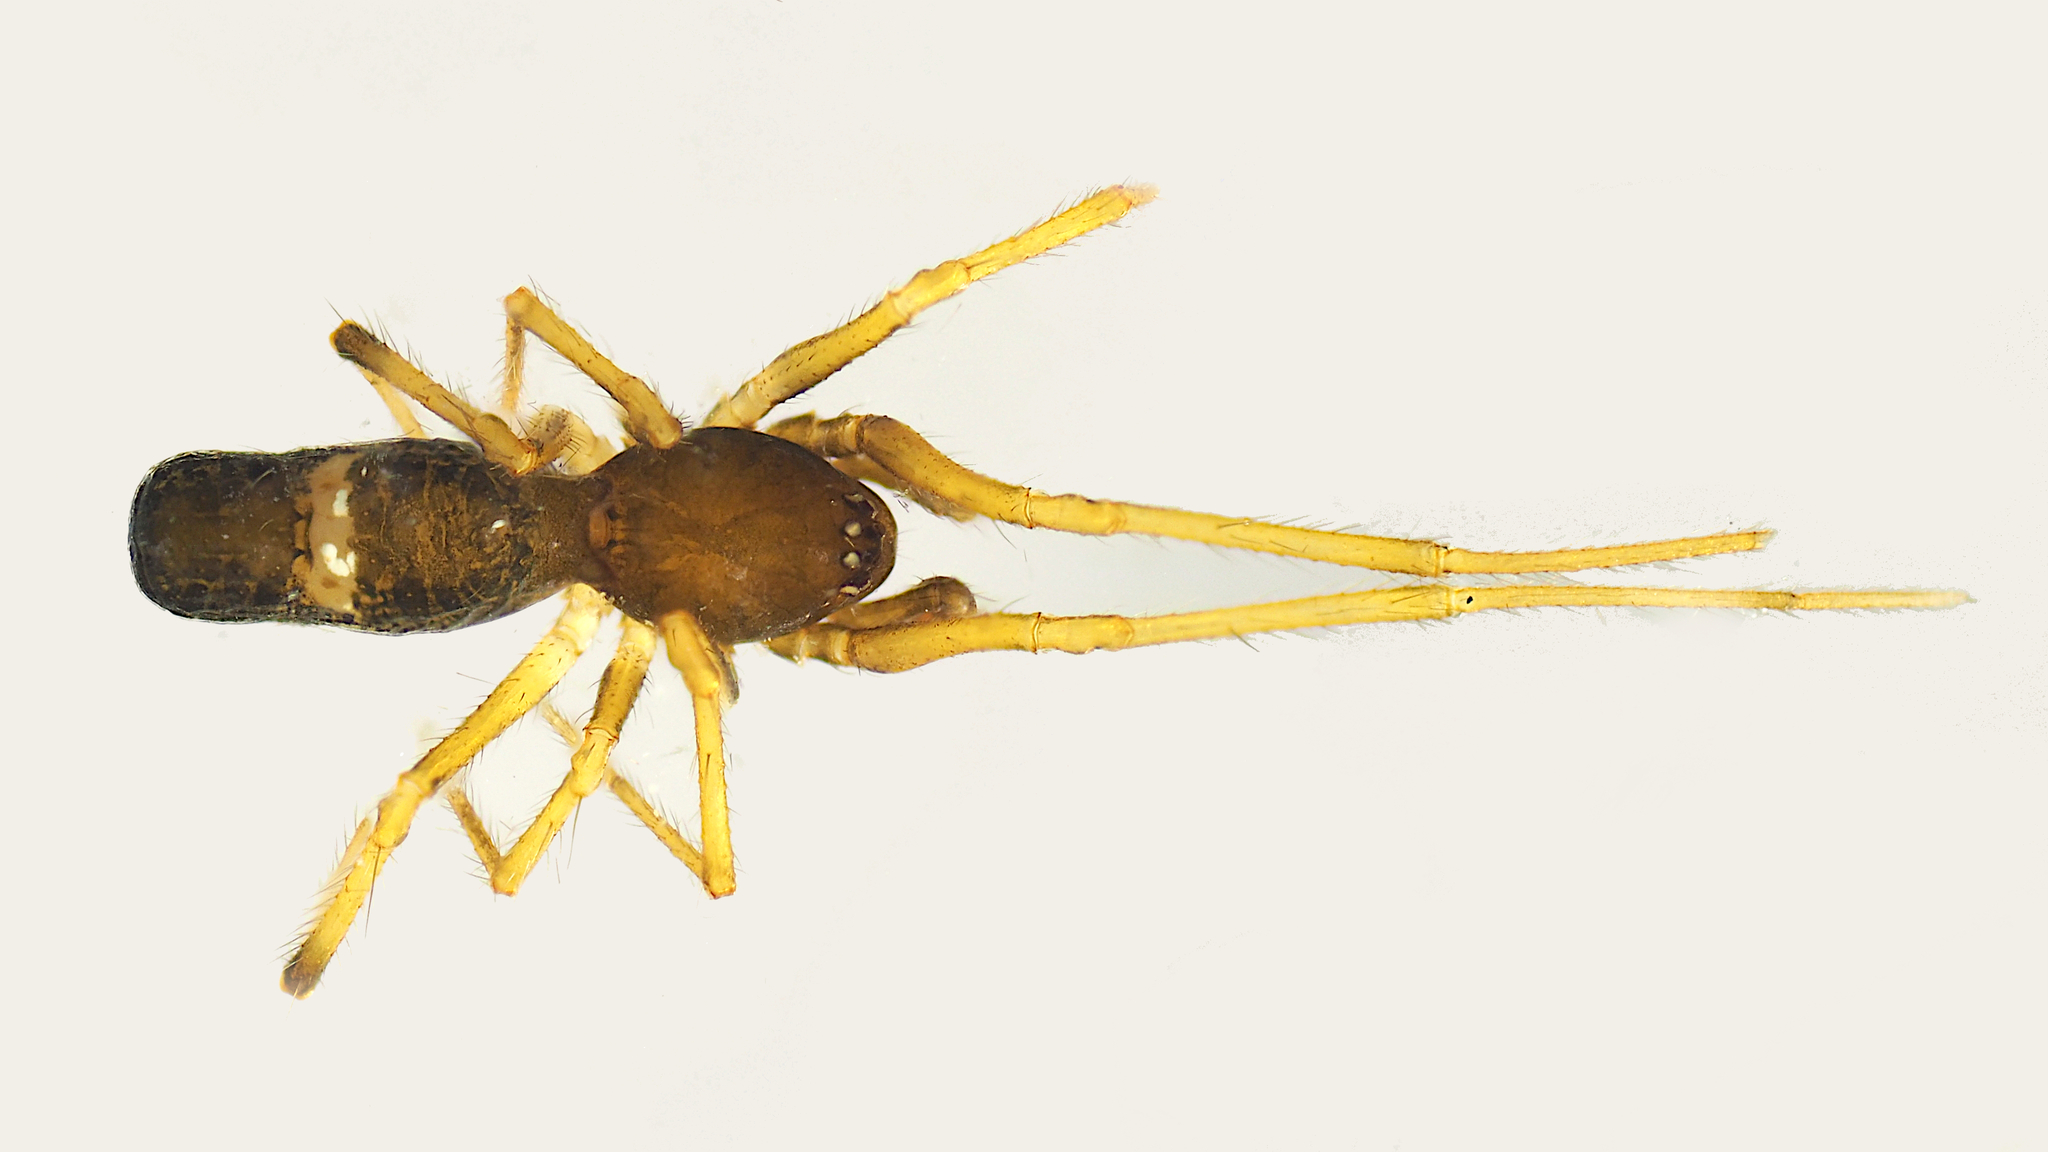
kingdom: Animalia
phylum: Arthropoda
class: Arachnida
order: Araneae
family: Theridiidae
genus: Coleosoma
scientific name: Coleosoma floridanum
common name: Spider
